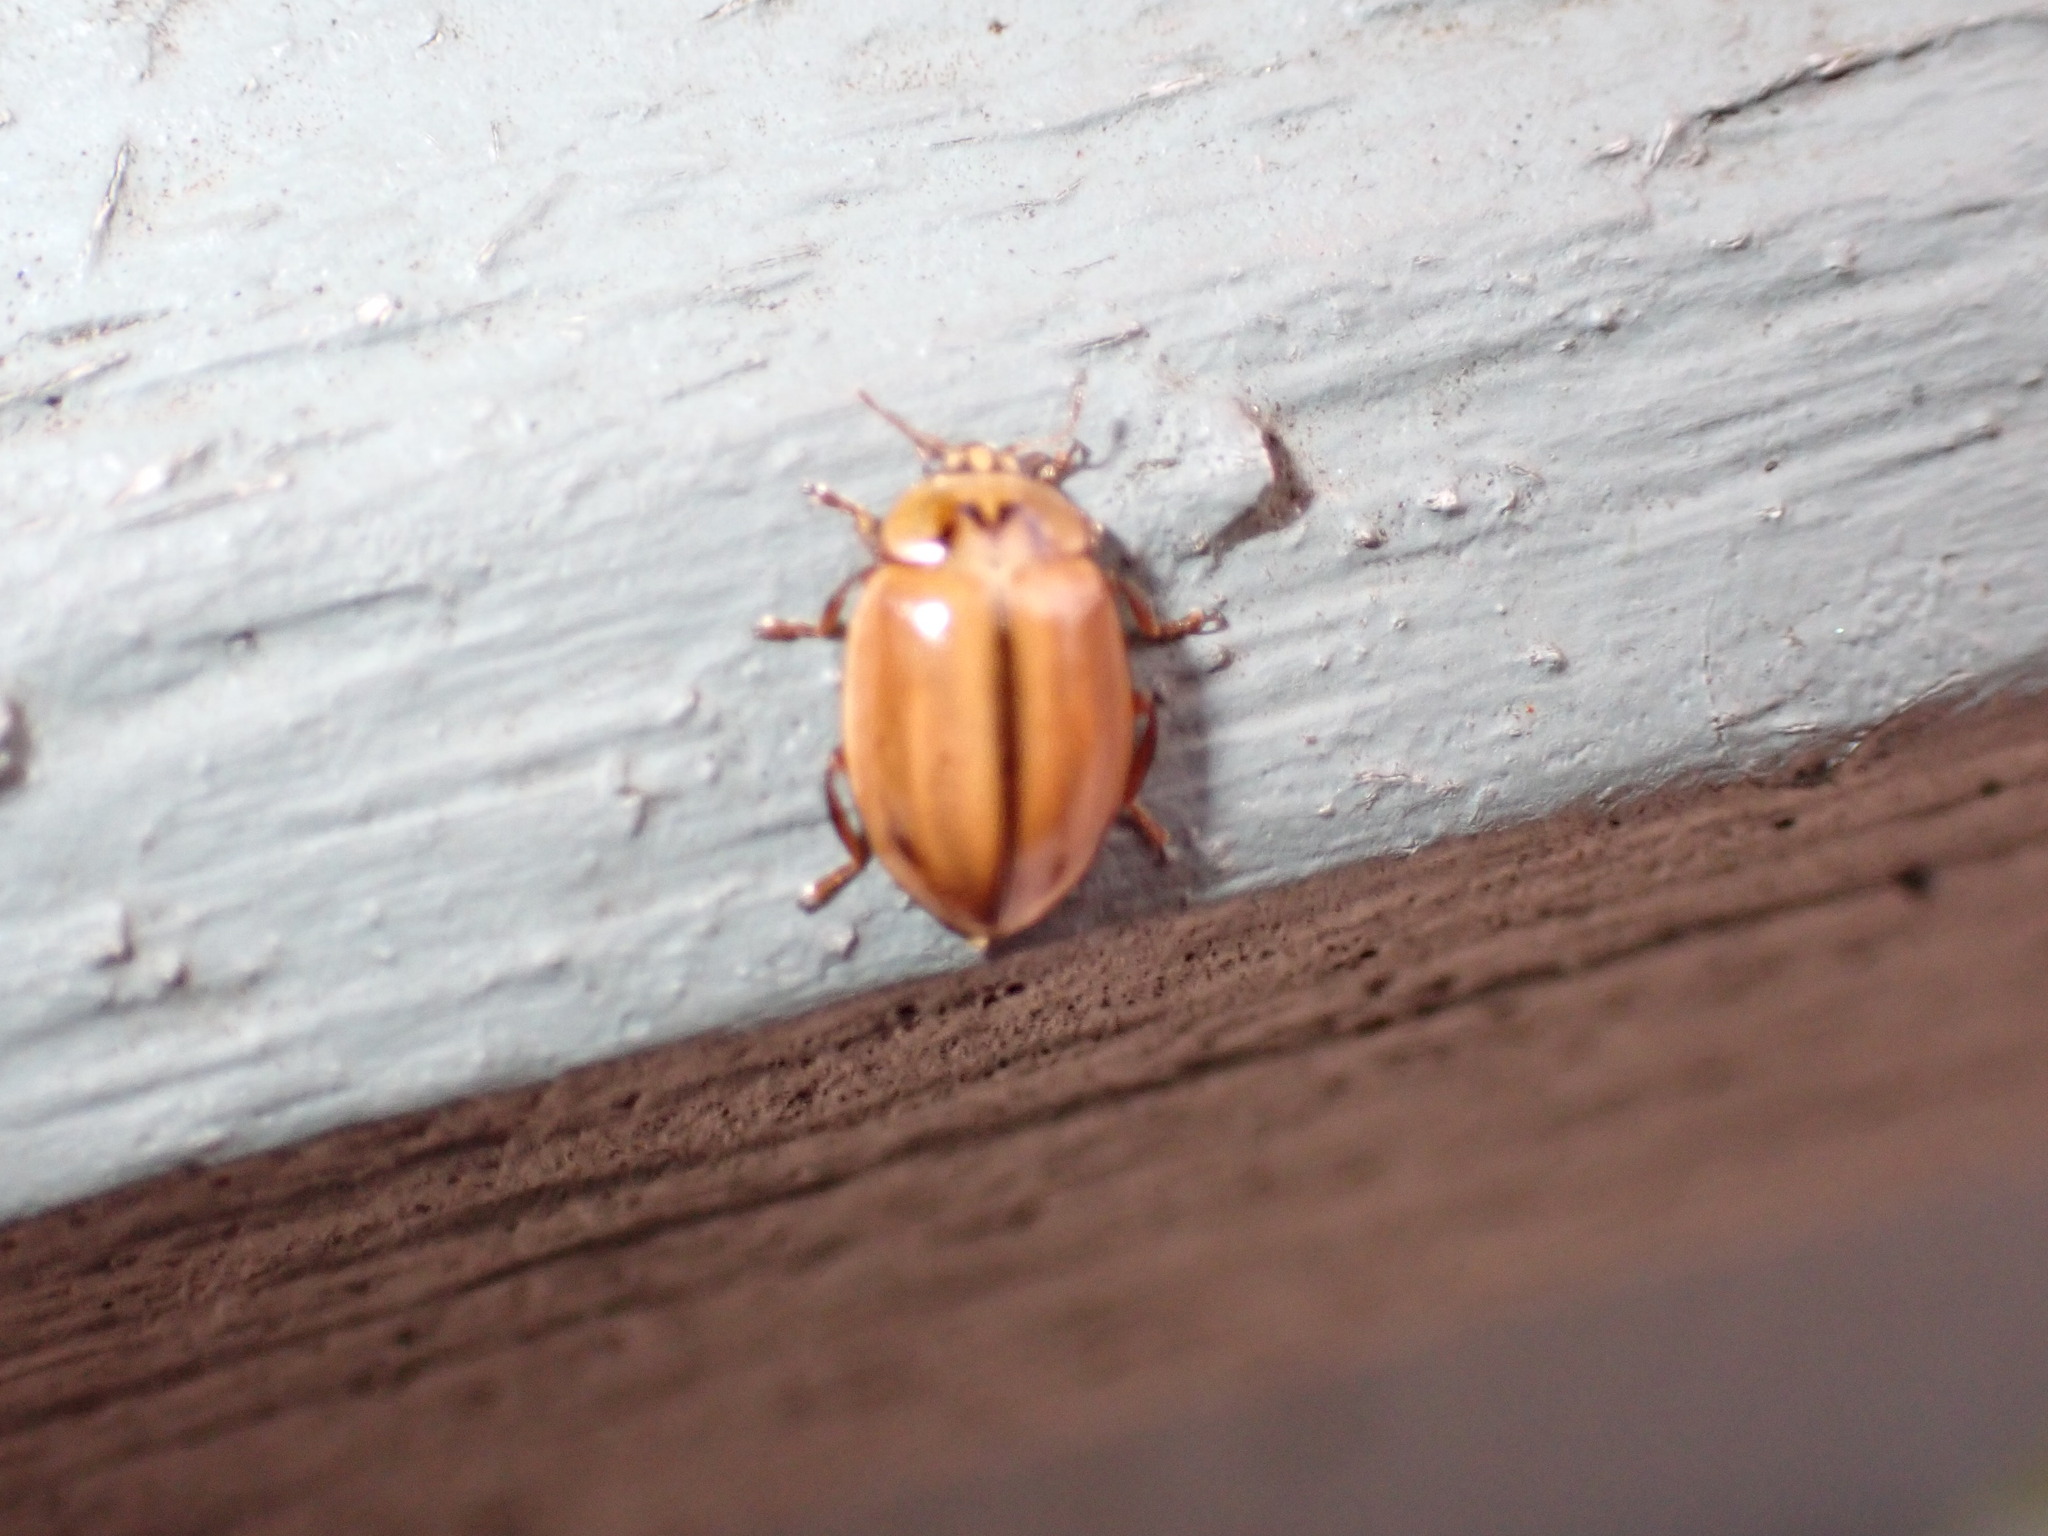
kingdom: Animalia
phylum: Arthropoda
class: Insecta
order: Coleoptera
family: Coccinellidae
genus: Aphidecta
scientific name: Aphidecta obliterata
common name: Larch ladybird
